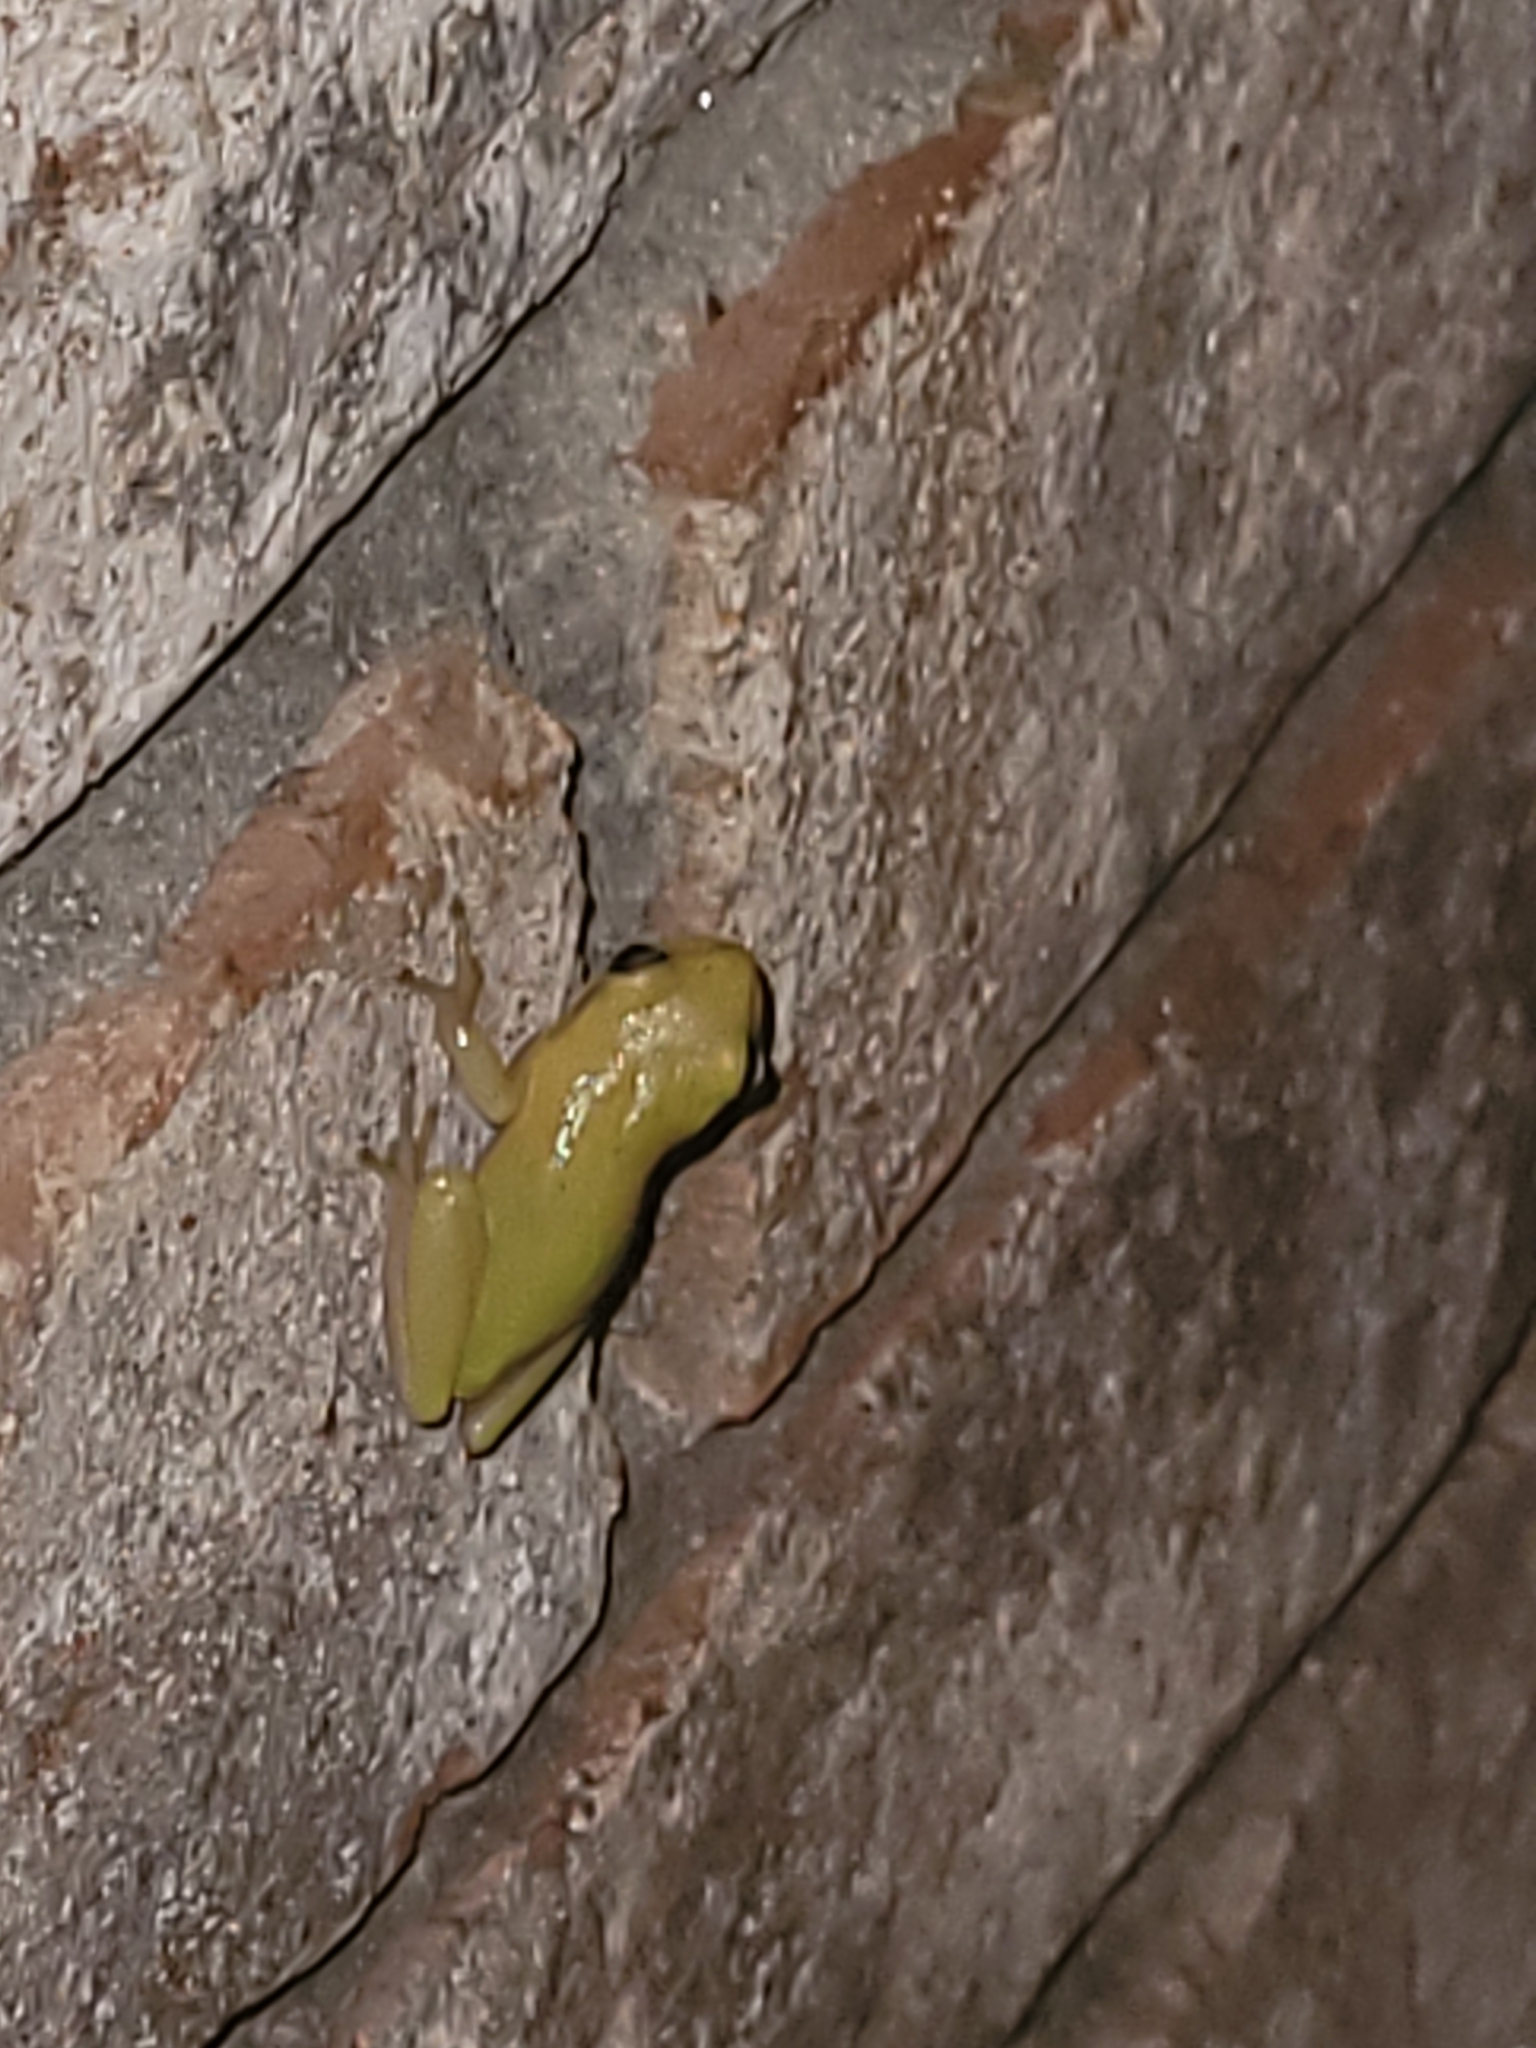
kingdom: Animalia
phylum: Chordata
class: Amphibia
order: Anura
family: Hylidae
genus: Dryophytes
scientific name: Dryophytes squirellus
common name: Squirrel treefrog
